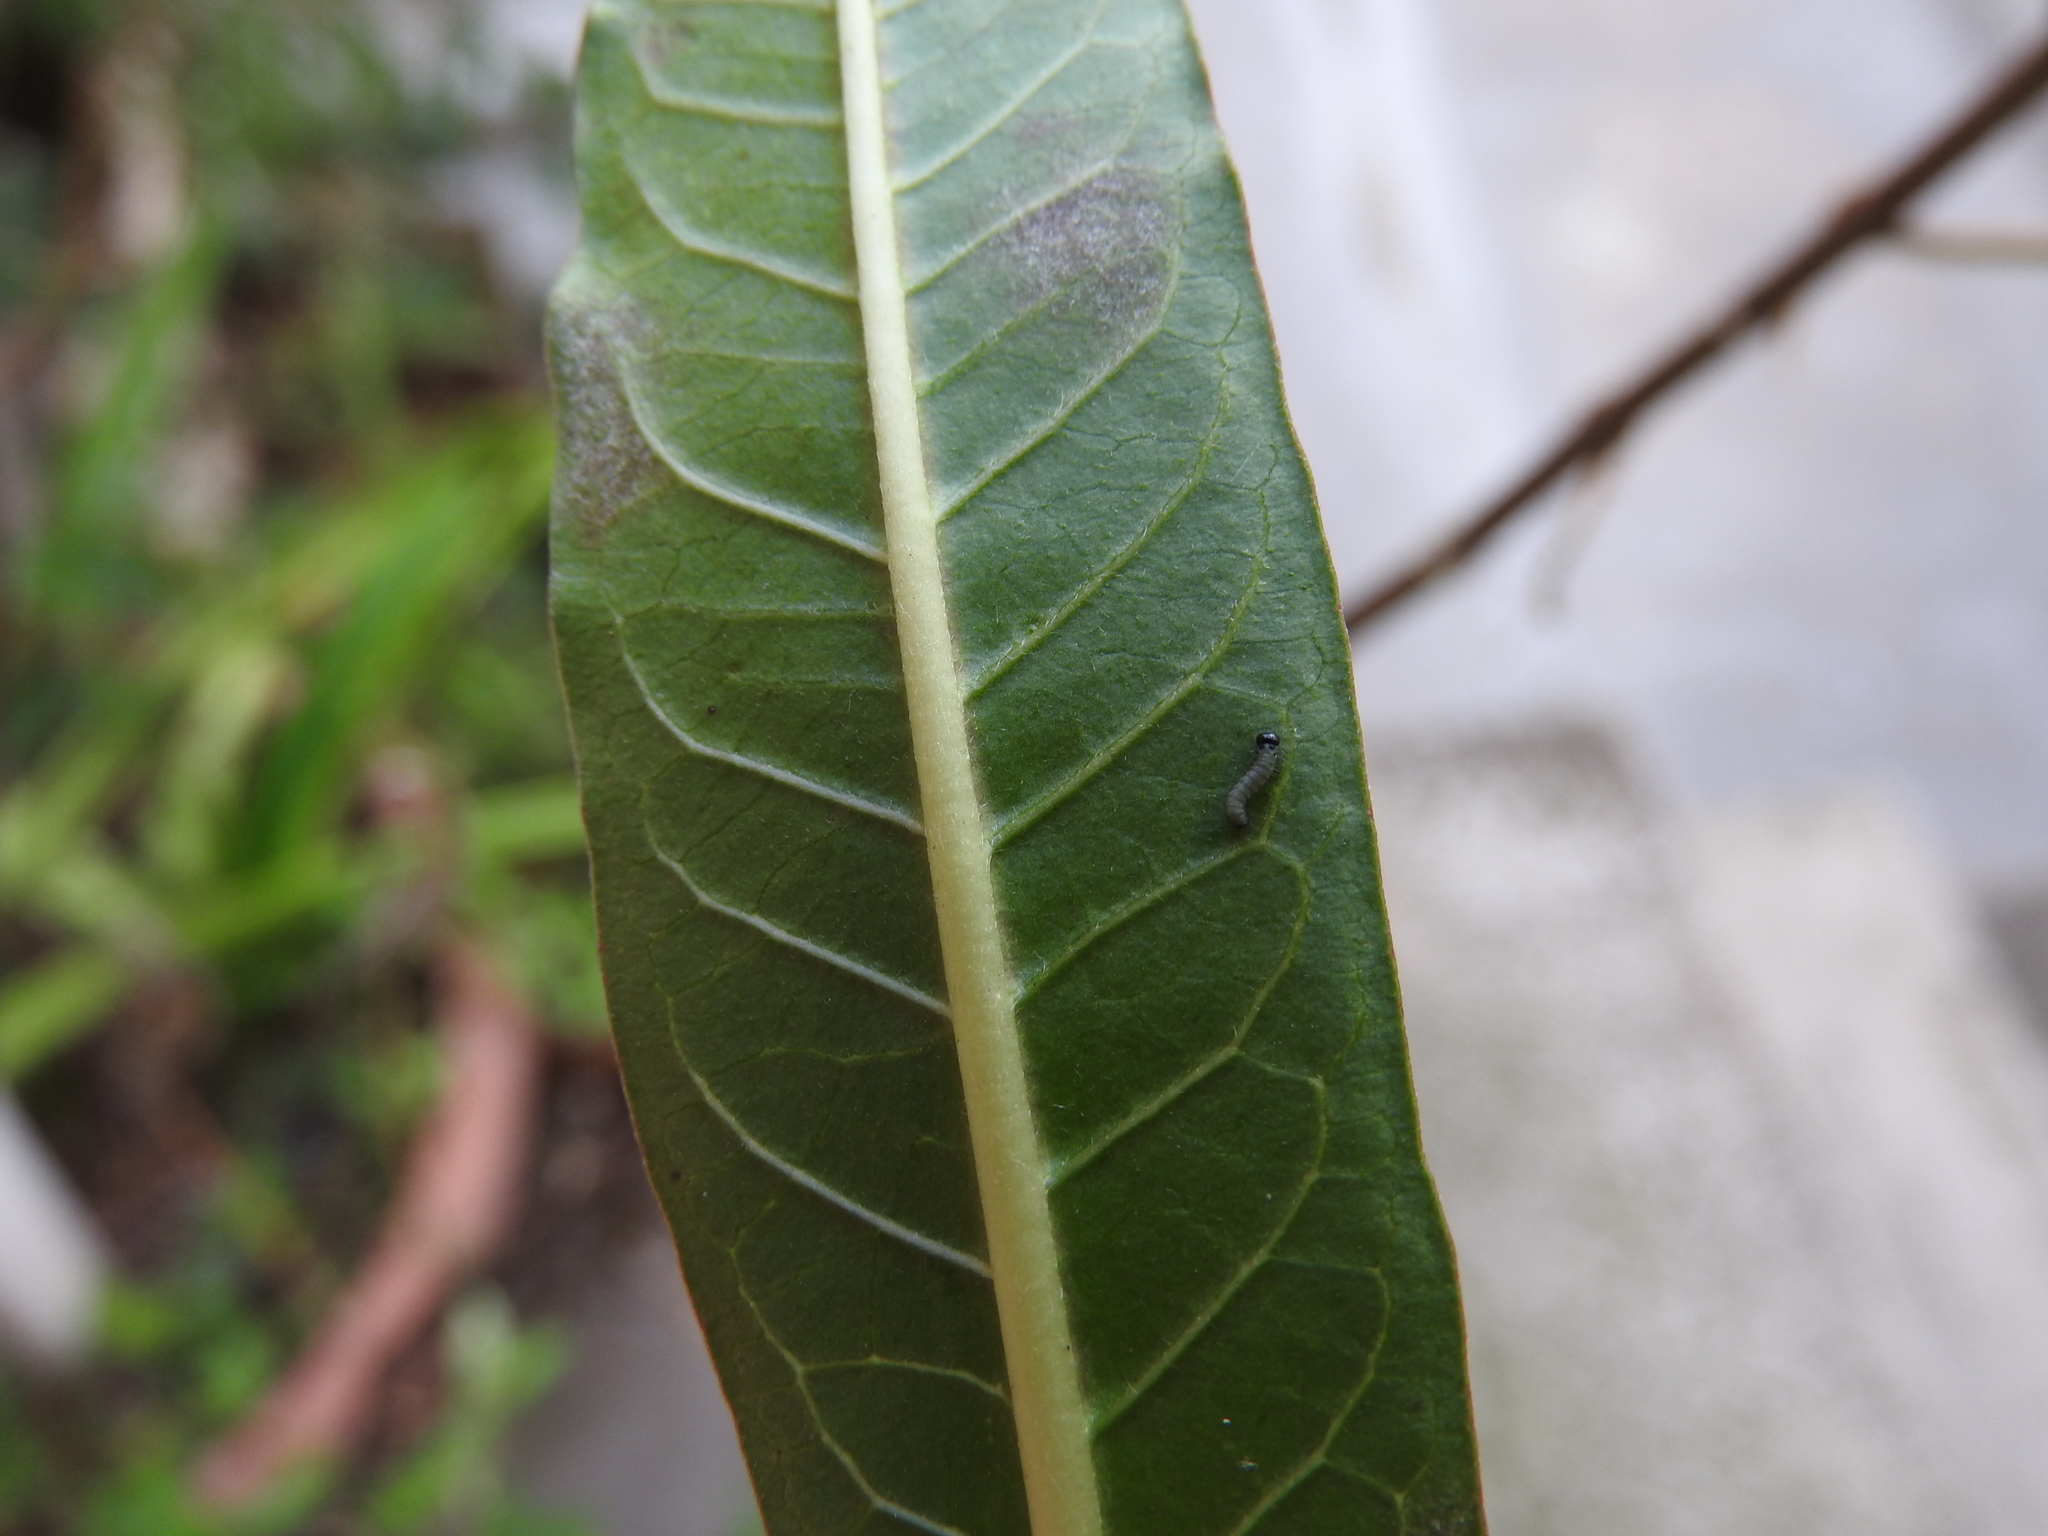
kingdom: Animalia
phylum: Arthropoda
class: Insecta
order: Lepidoptera
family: Nymphalidae
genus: Danaus
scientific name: Danaus plexippus
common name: Monarch
